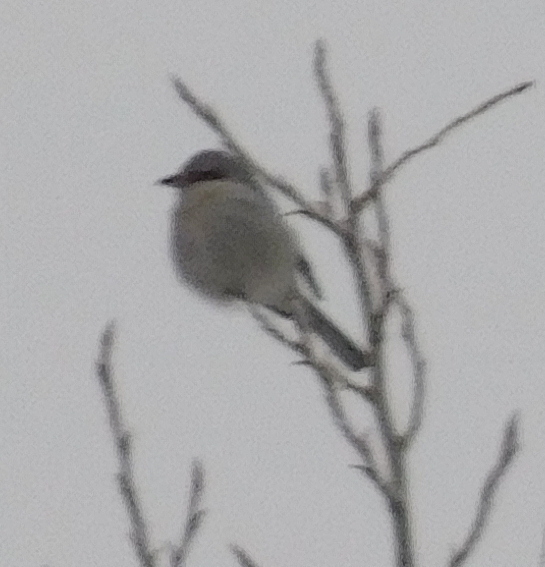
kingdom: Animalia
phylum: Chordata
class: Aves
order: Passeriformes
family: Laniidae
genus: Lanius
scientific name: Lanius excubitor
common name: Great grey shrike
